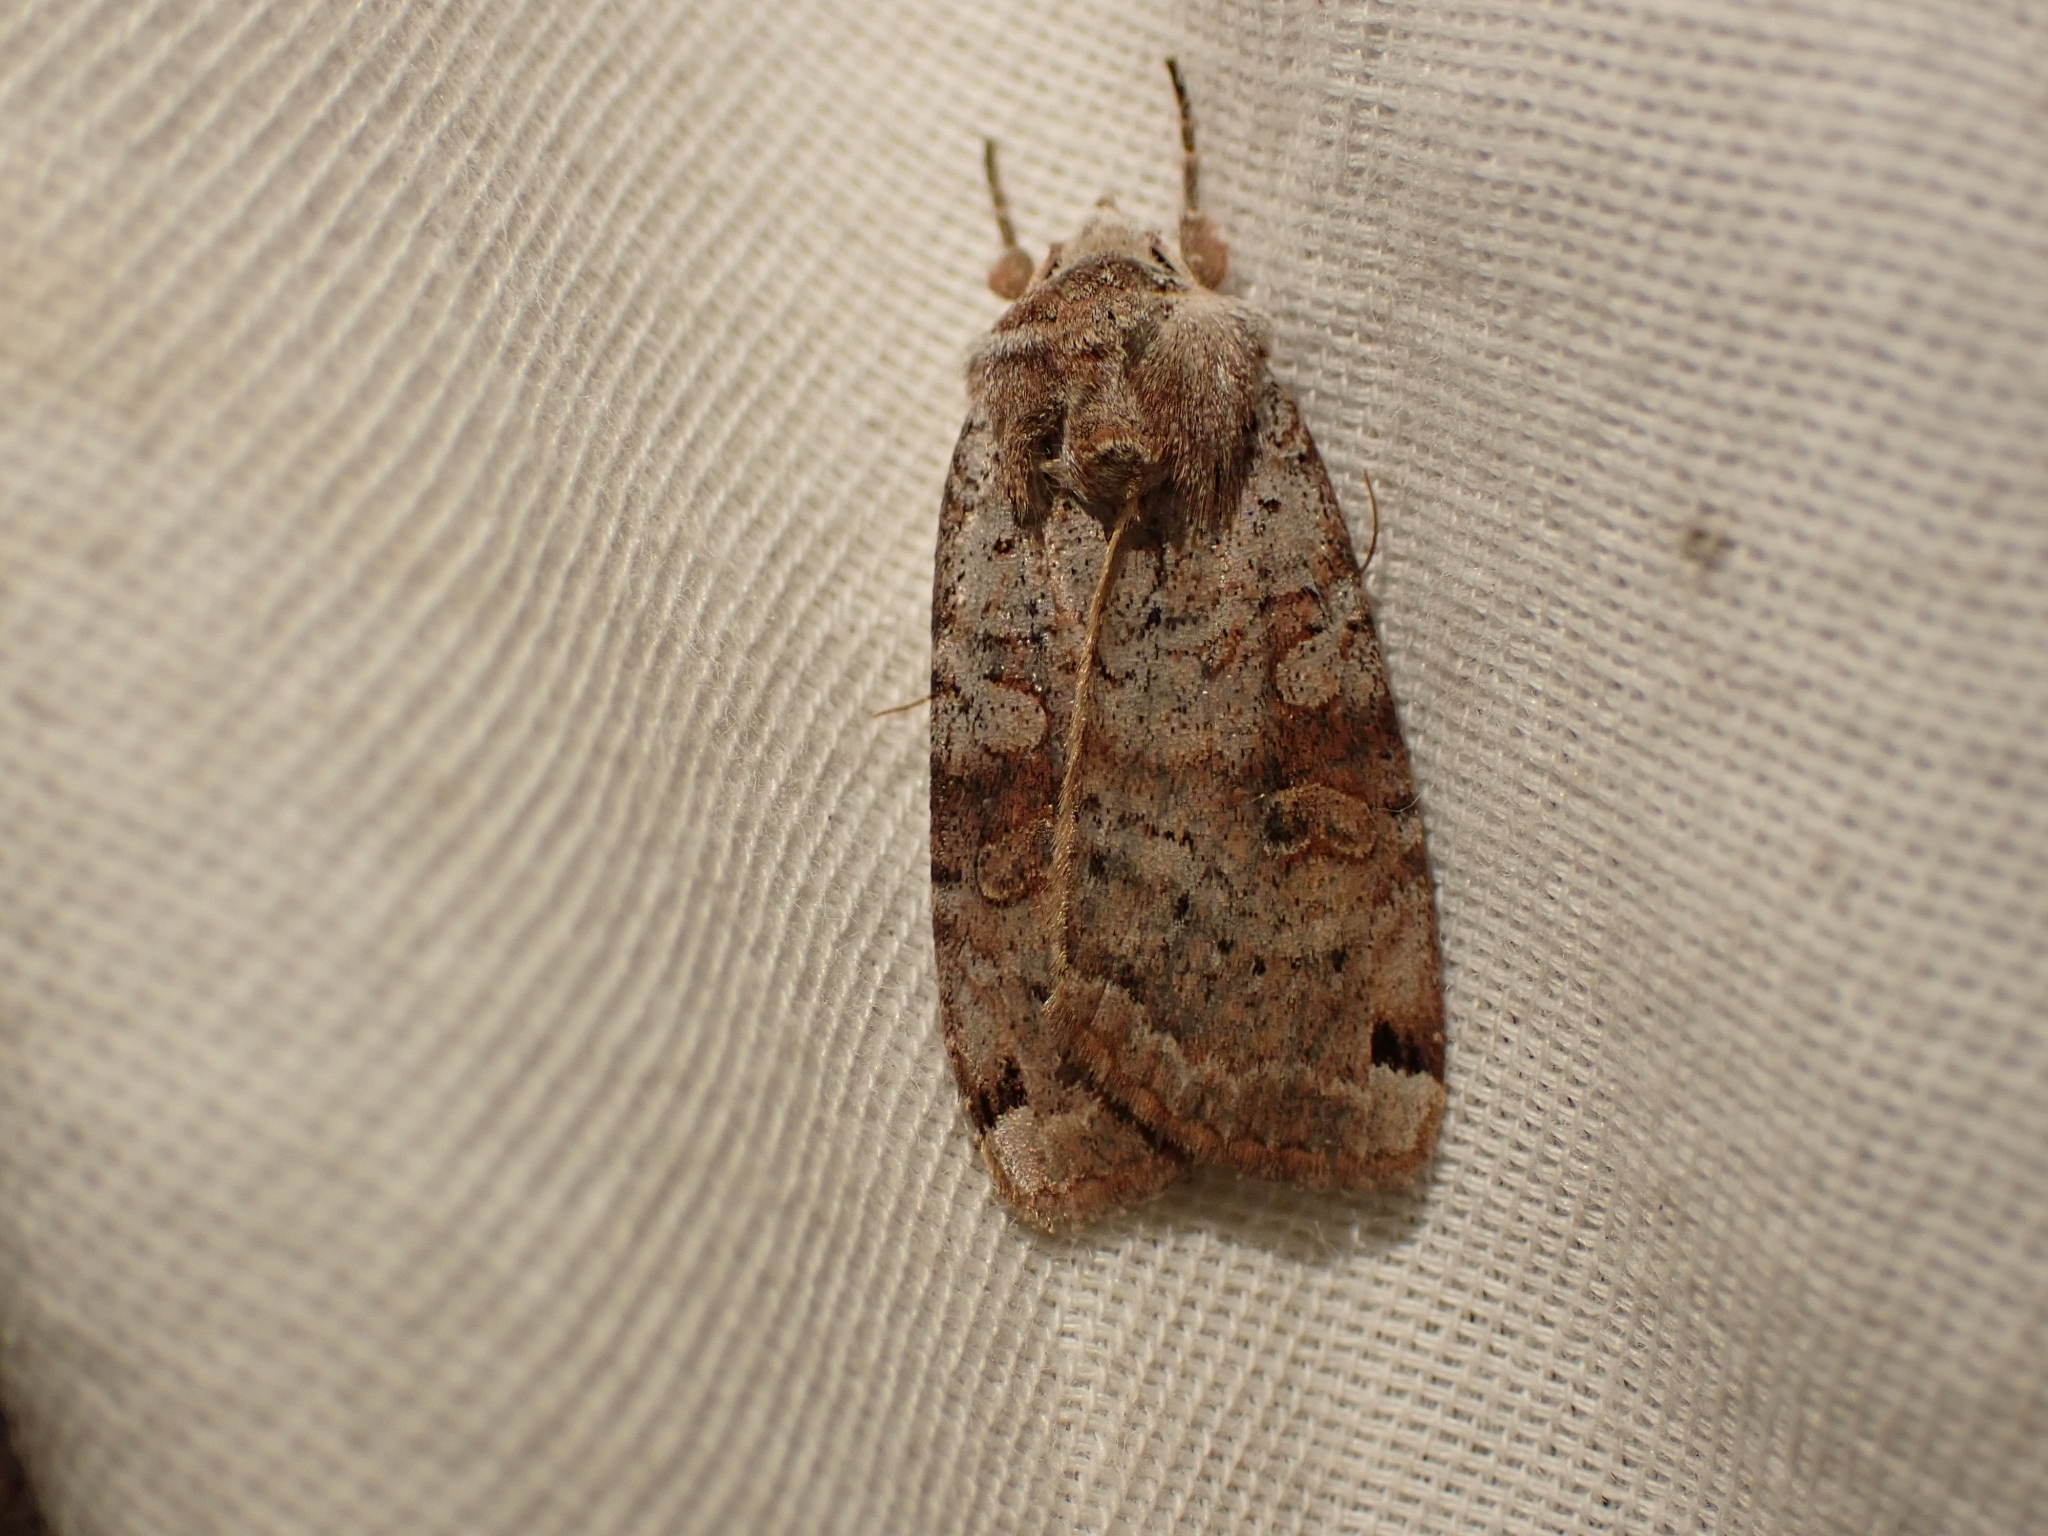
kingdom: Animalia
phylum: Arthropoda
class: Insecta
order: Lepidoptera
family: Noctuidae
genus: Xestia
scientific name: Xestia smithii
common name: Smith's dart
